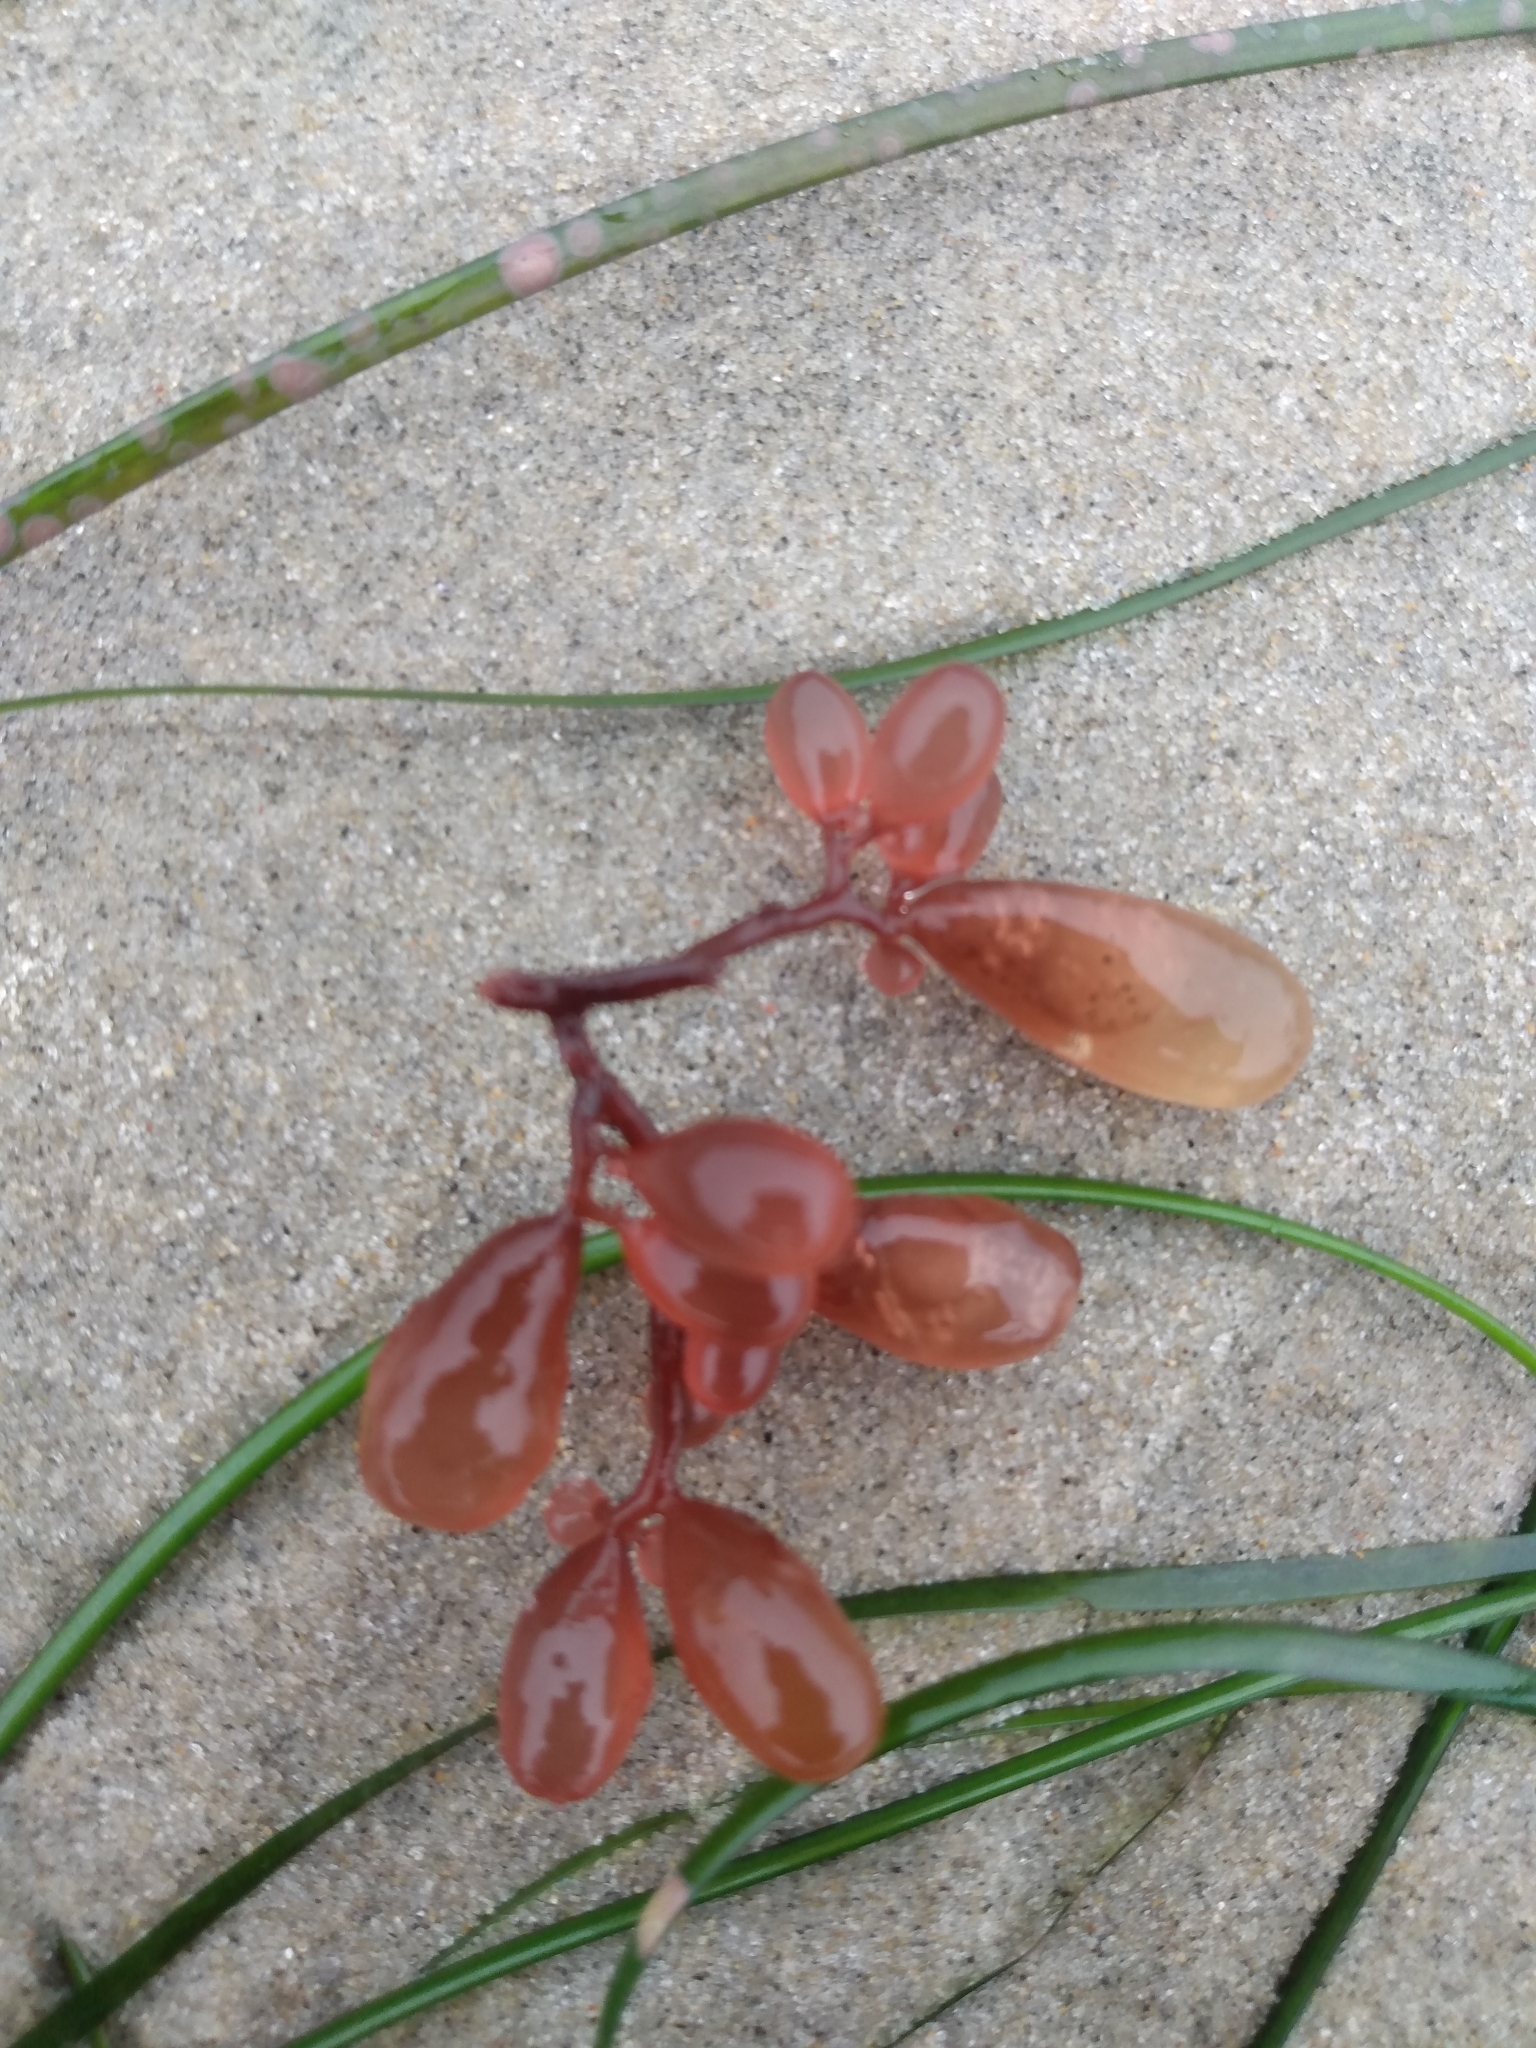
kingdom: Plantae
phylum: Rhodophyta
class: Florideophyceae
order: Rhodymeniales
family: Rhodymeniaceae
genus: Botryocladia
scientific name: Botryocladia pseudodichotoma
